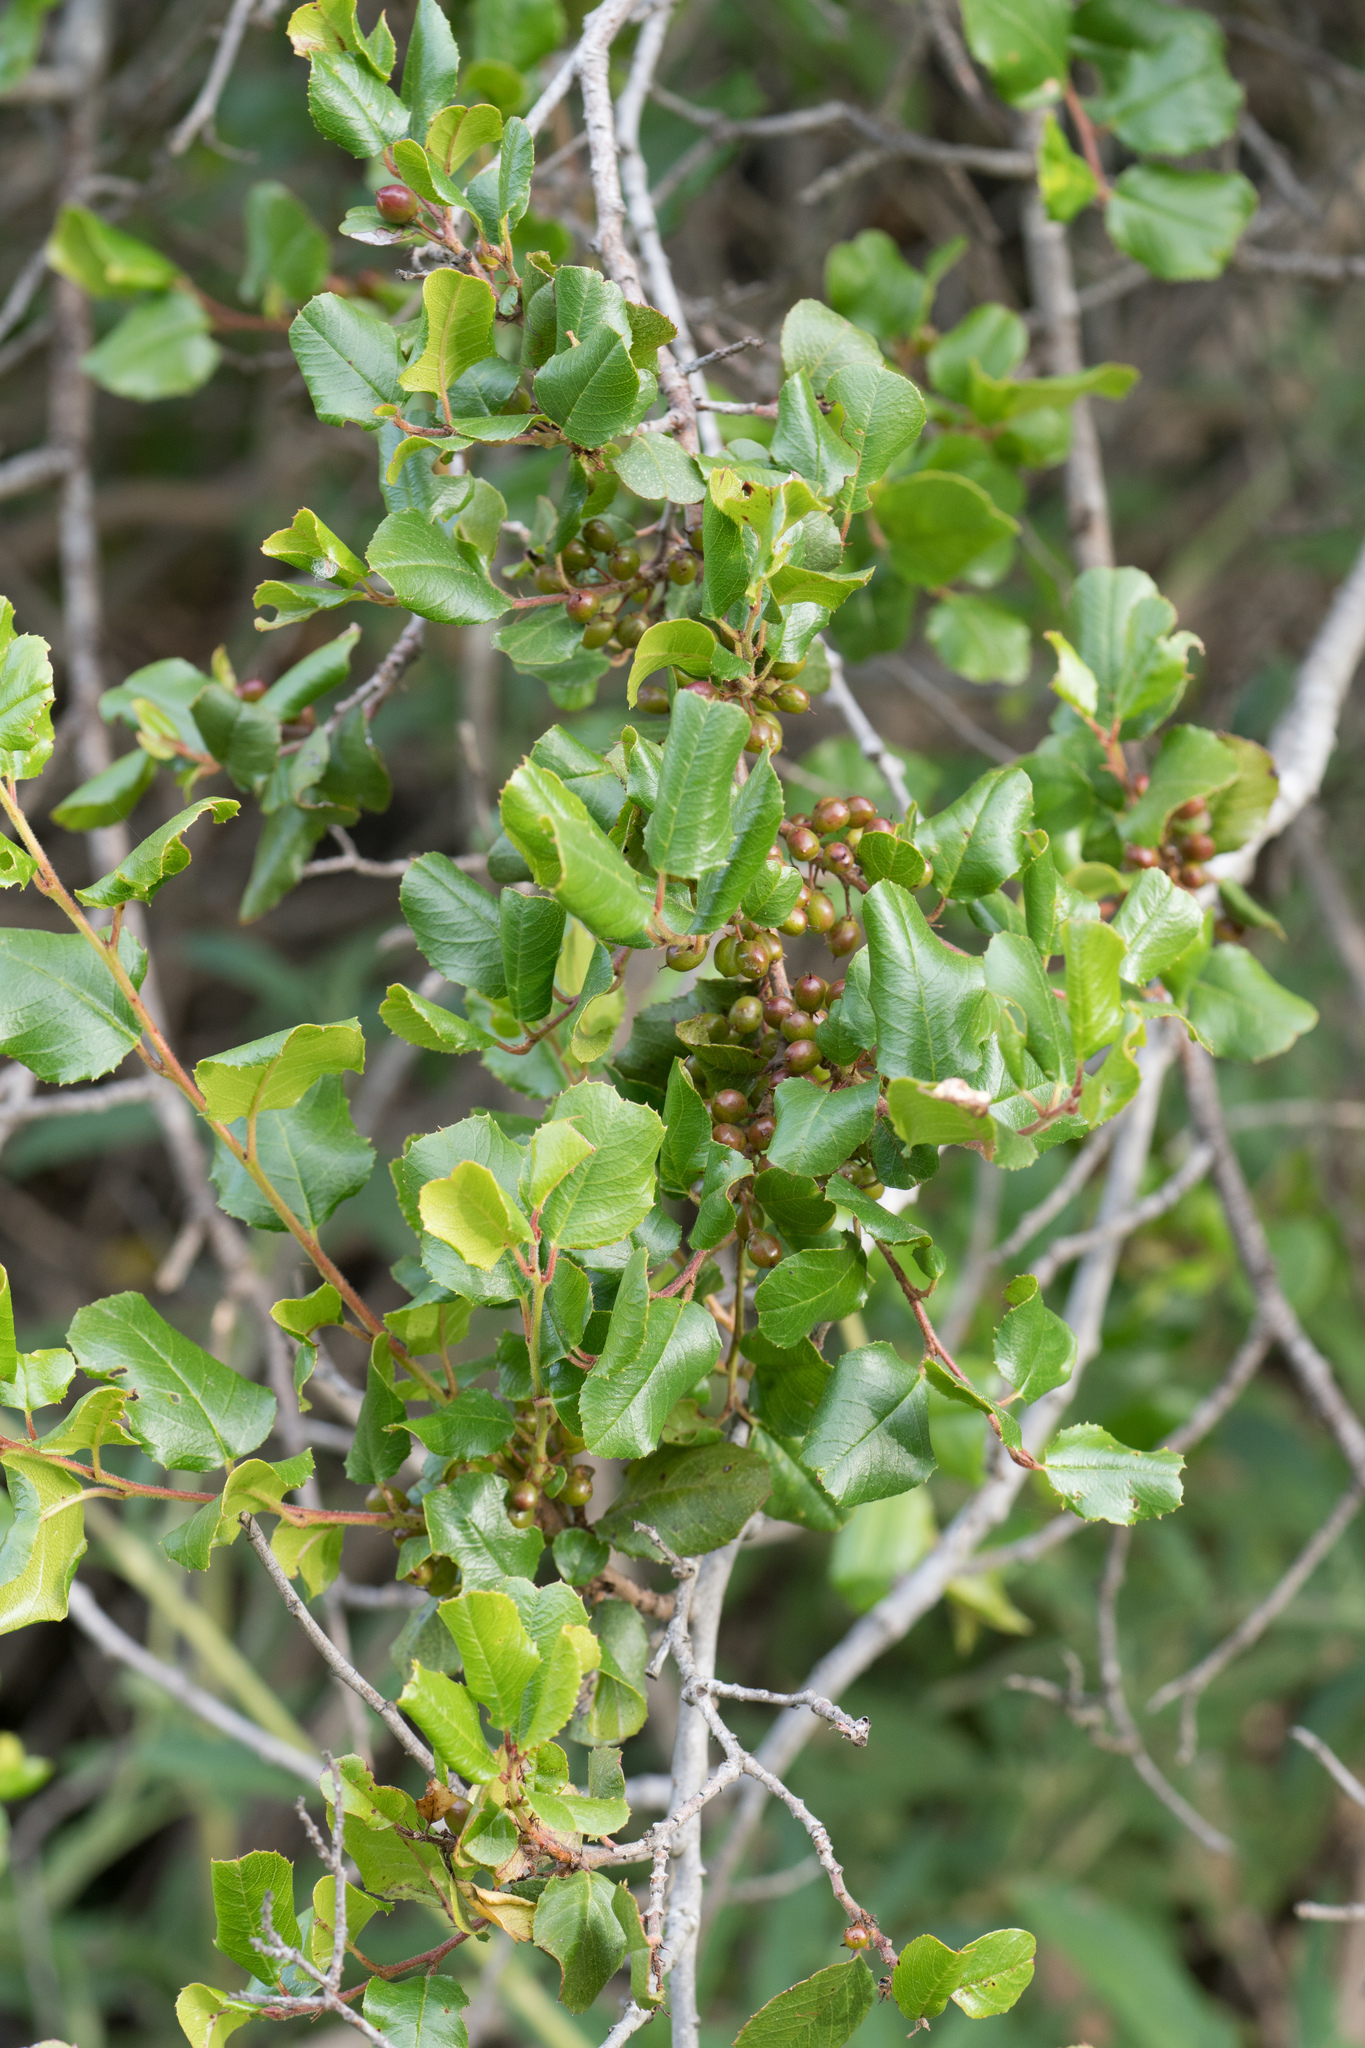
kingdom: Plantae
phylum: Tracheophyta
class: Magnoliopsida
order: Rosales
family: Rhamnaceae
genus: Endotropis
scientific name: Endotropis crocea
